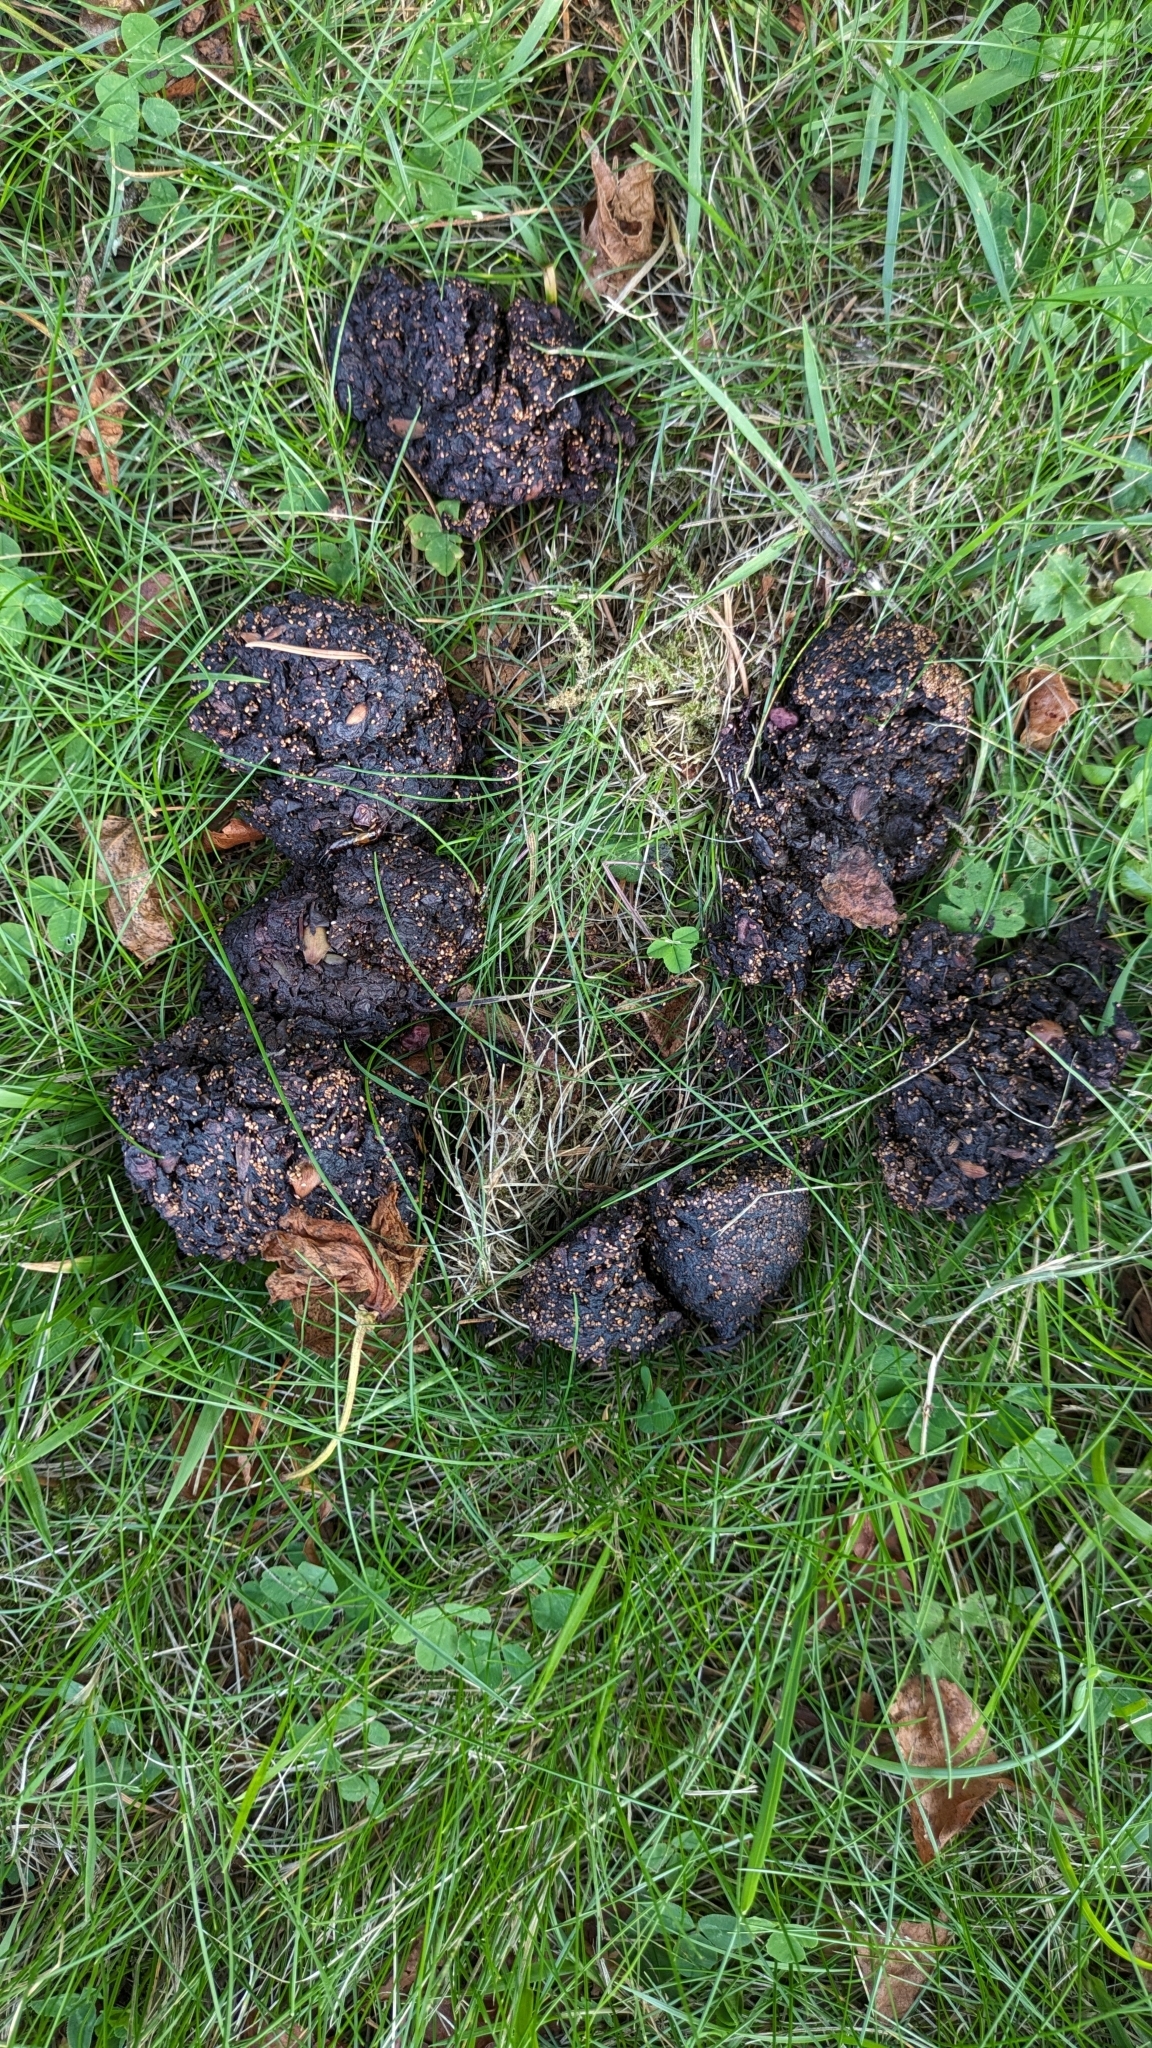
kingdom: Animalia
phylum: Chordata
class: Mammalia
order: Carnivora
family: Ursidae
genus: Ursus
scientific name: Ursus americanus
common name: American black bear
